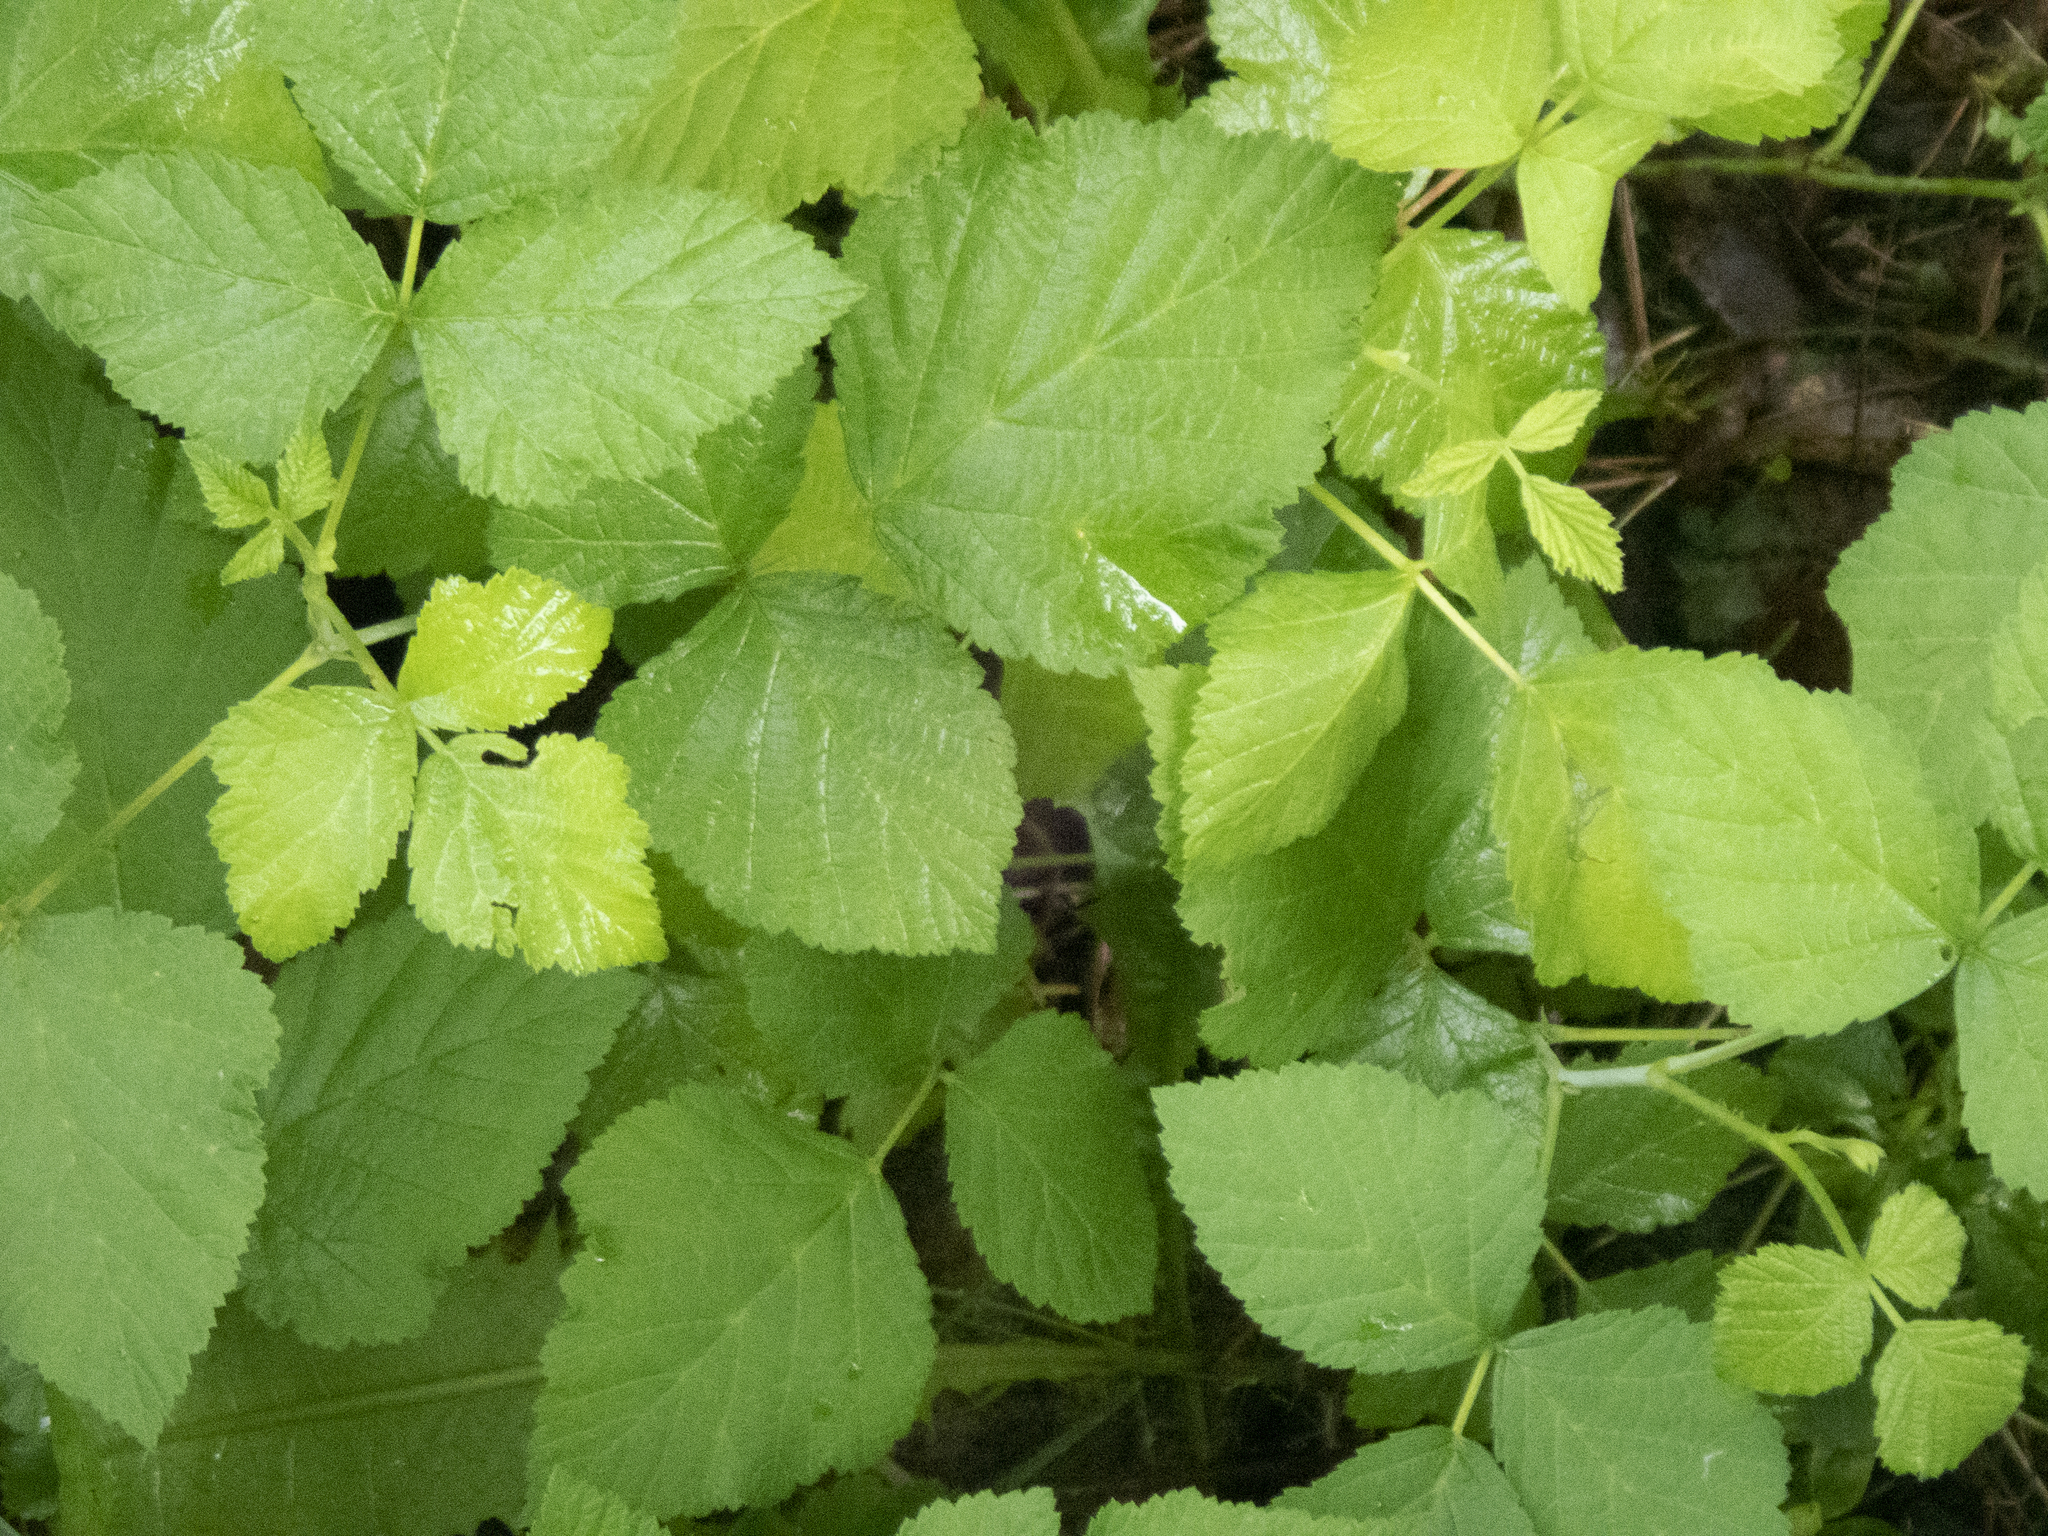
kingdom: Plantae
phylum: Tracheophyta
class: Magnoliopsida
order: Rosales
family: Rosaceae
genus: Rubus
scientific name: Rubus caesius
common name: Dewberry
